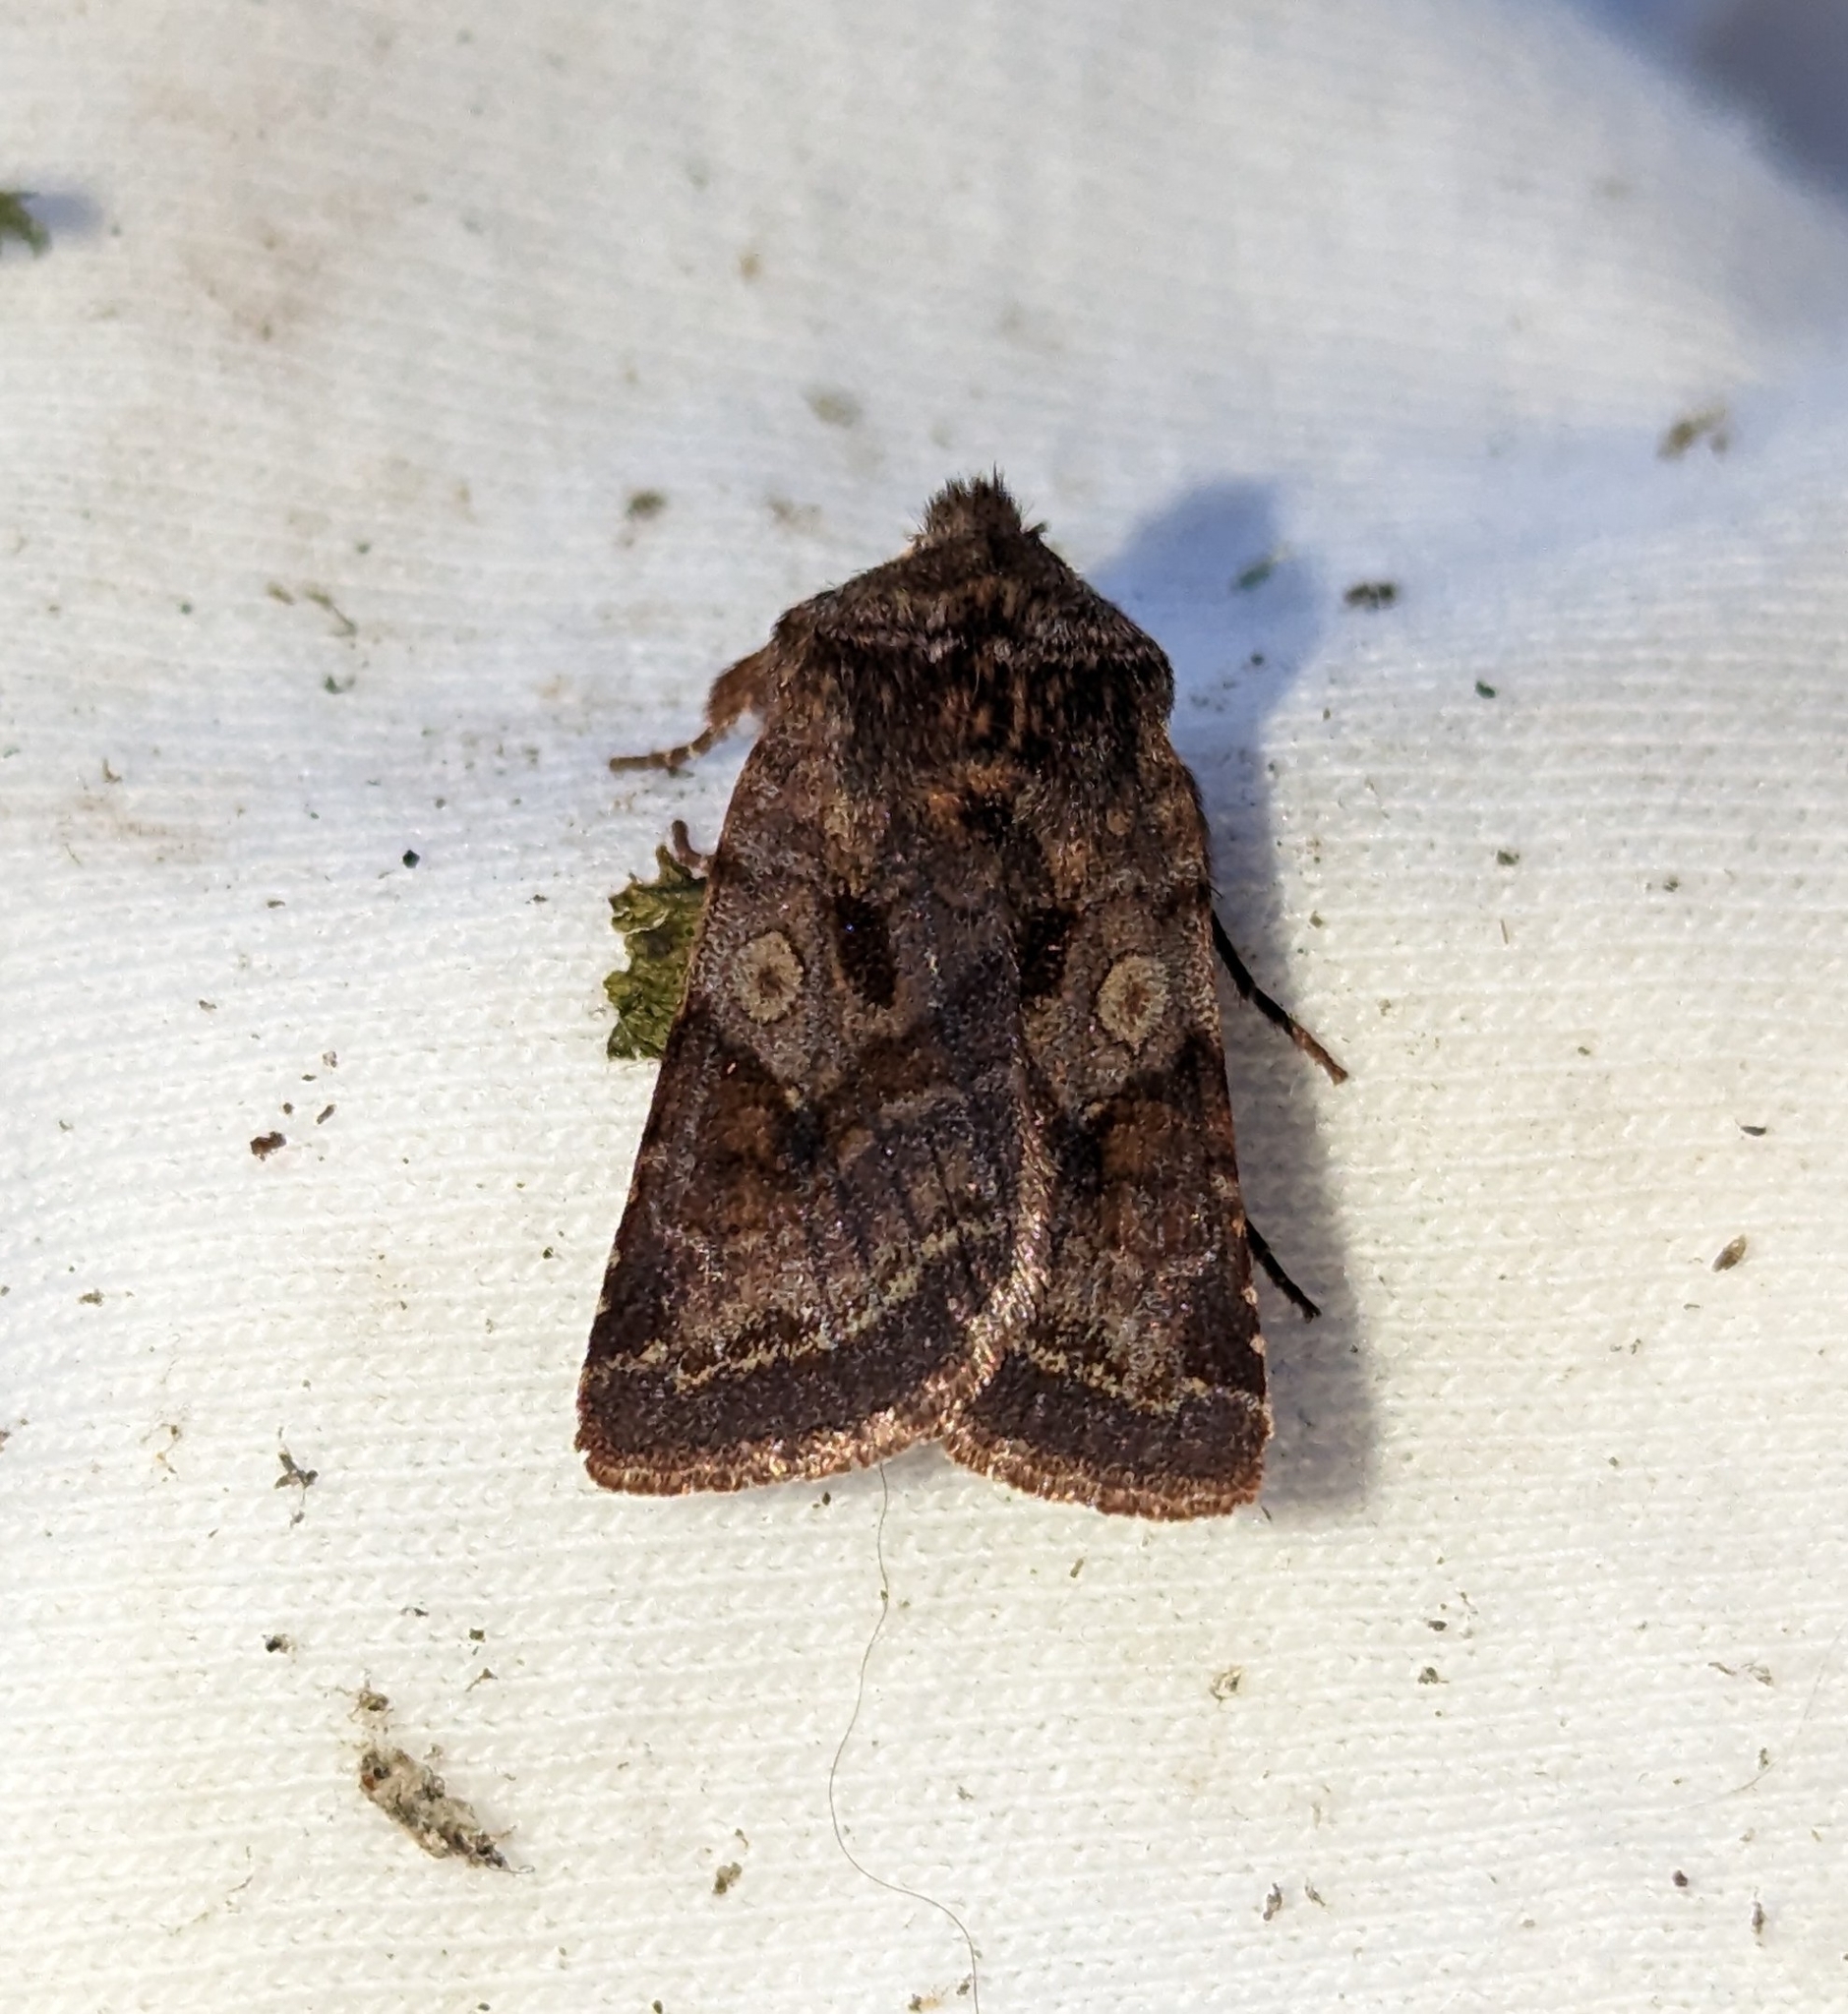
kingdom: Animalia
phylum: Arthropoda
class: Insecta
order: Lepidoptera
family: Noctuidae
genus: Cerastis
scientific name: Cerastis salicarum
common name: Willow dart
